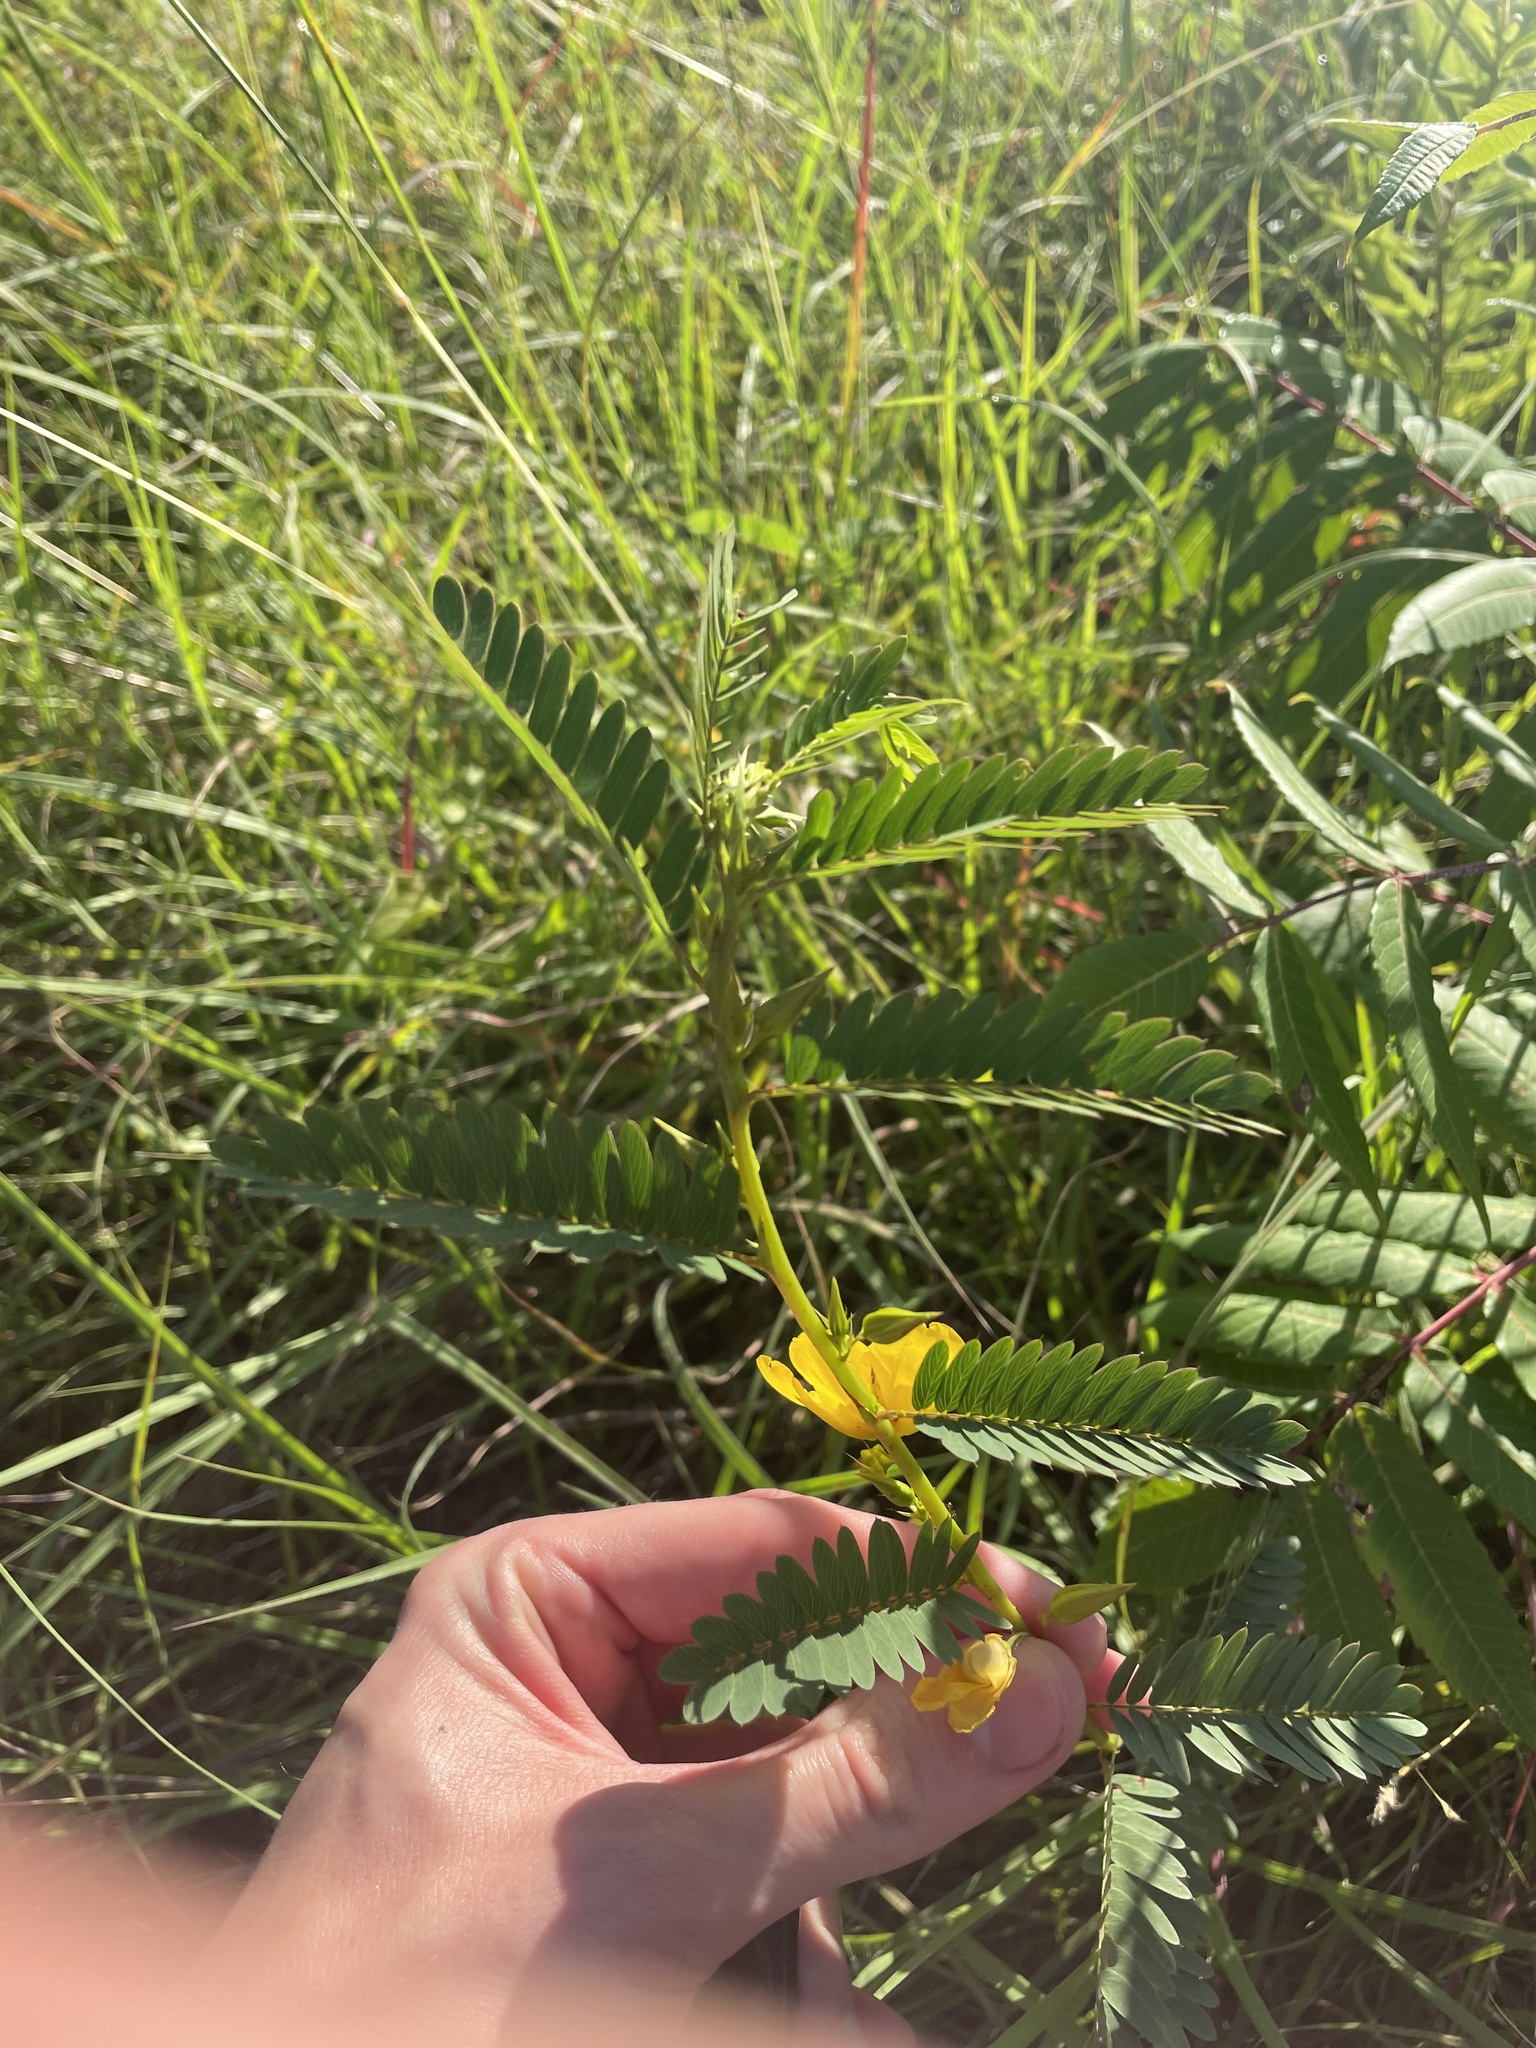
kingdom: Plantae
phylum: Tracheophyta
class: Magnoliopsida
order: Fabales
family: Fabaceae
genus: Chamaecrista
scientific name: Chamaecrista fasciculata
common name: Golden cassia
